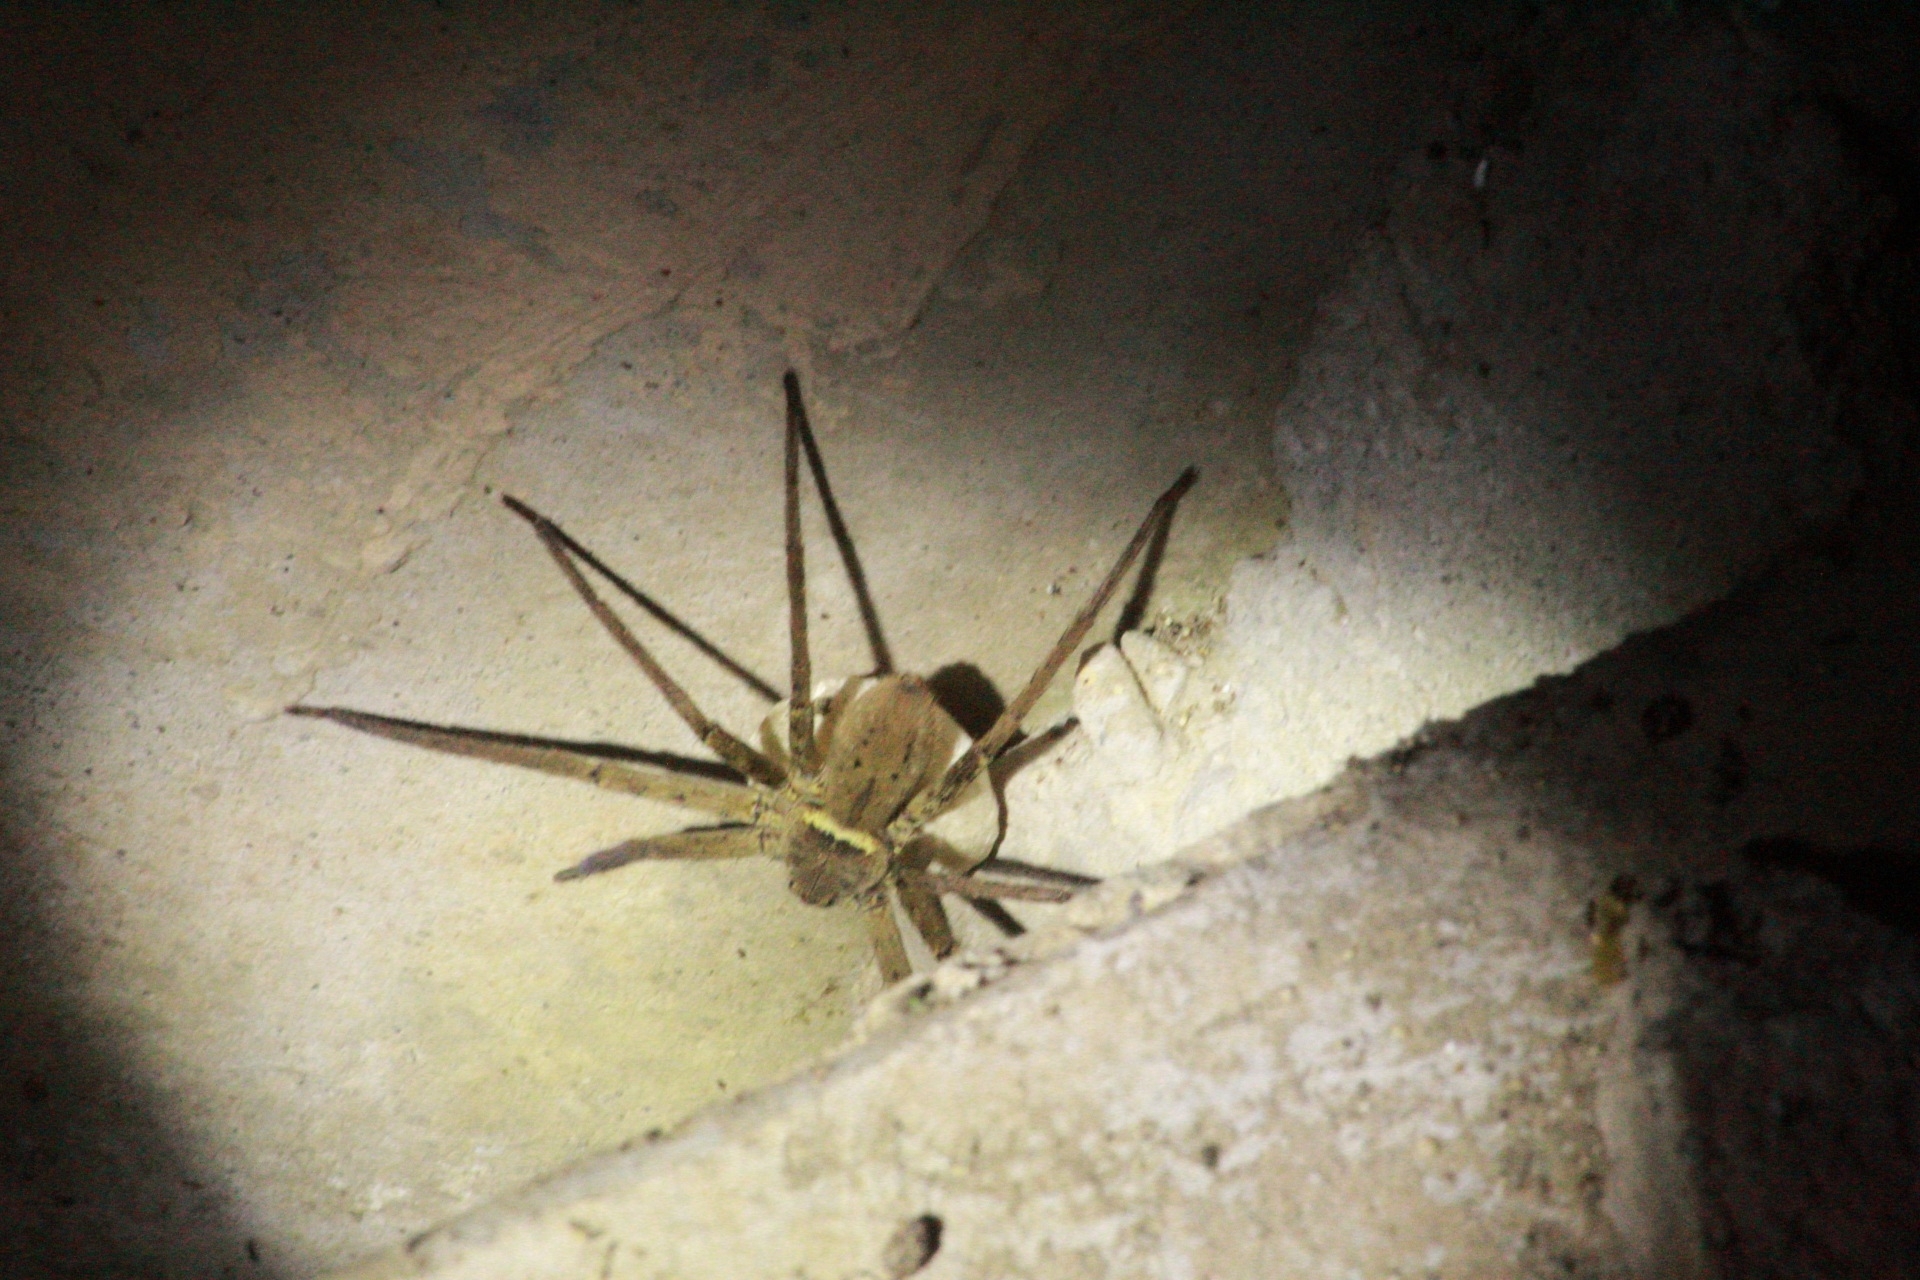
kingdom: Animalia
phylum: Arthropoda
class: Arachnida
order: Araneae
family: Sparassidae
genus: Heteropoda
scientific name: Heteropoda venatoria
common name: Huntsman spider
